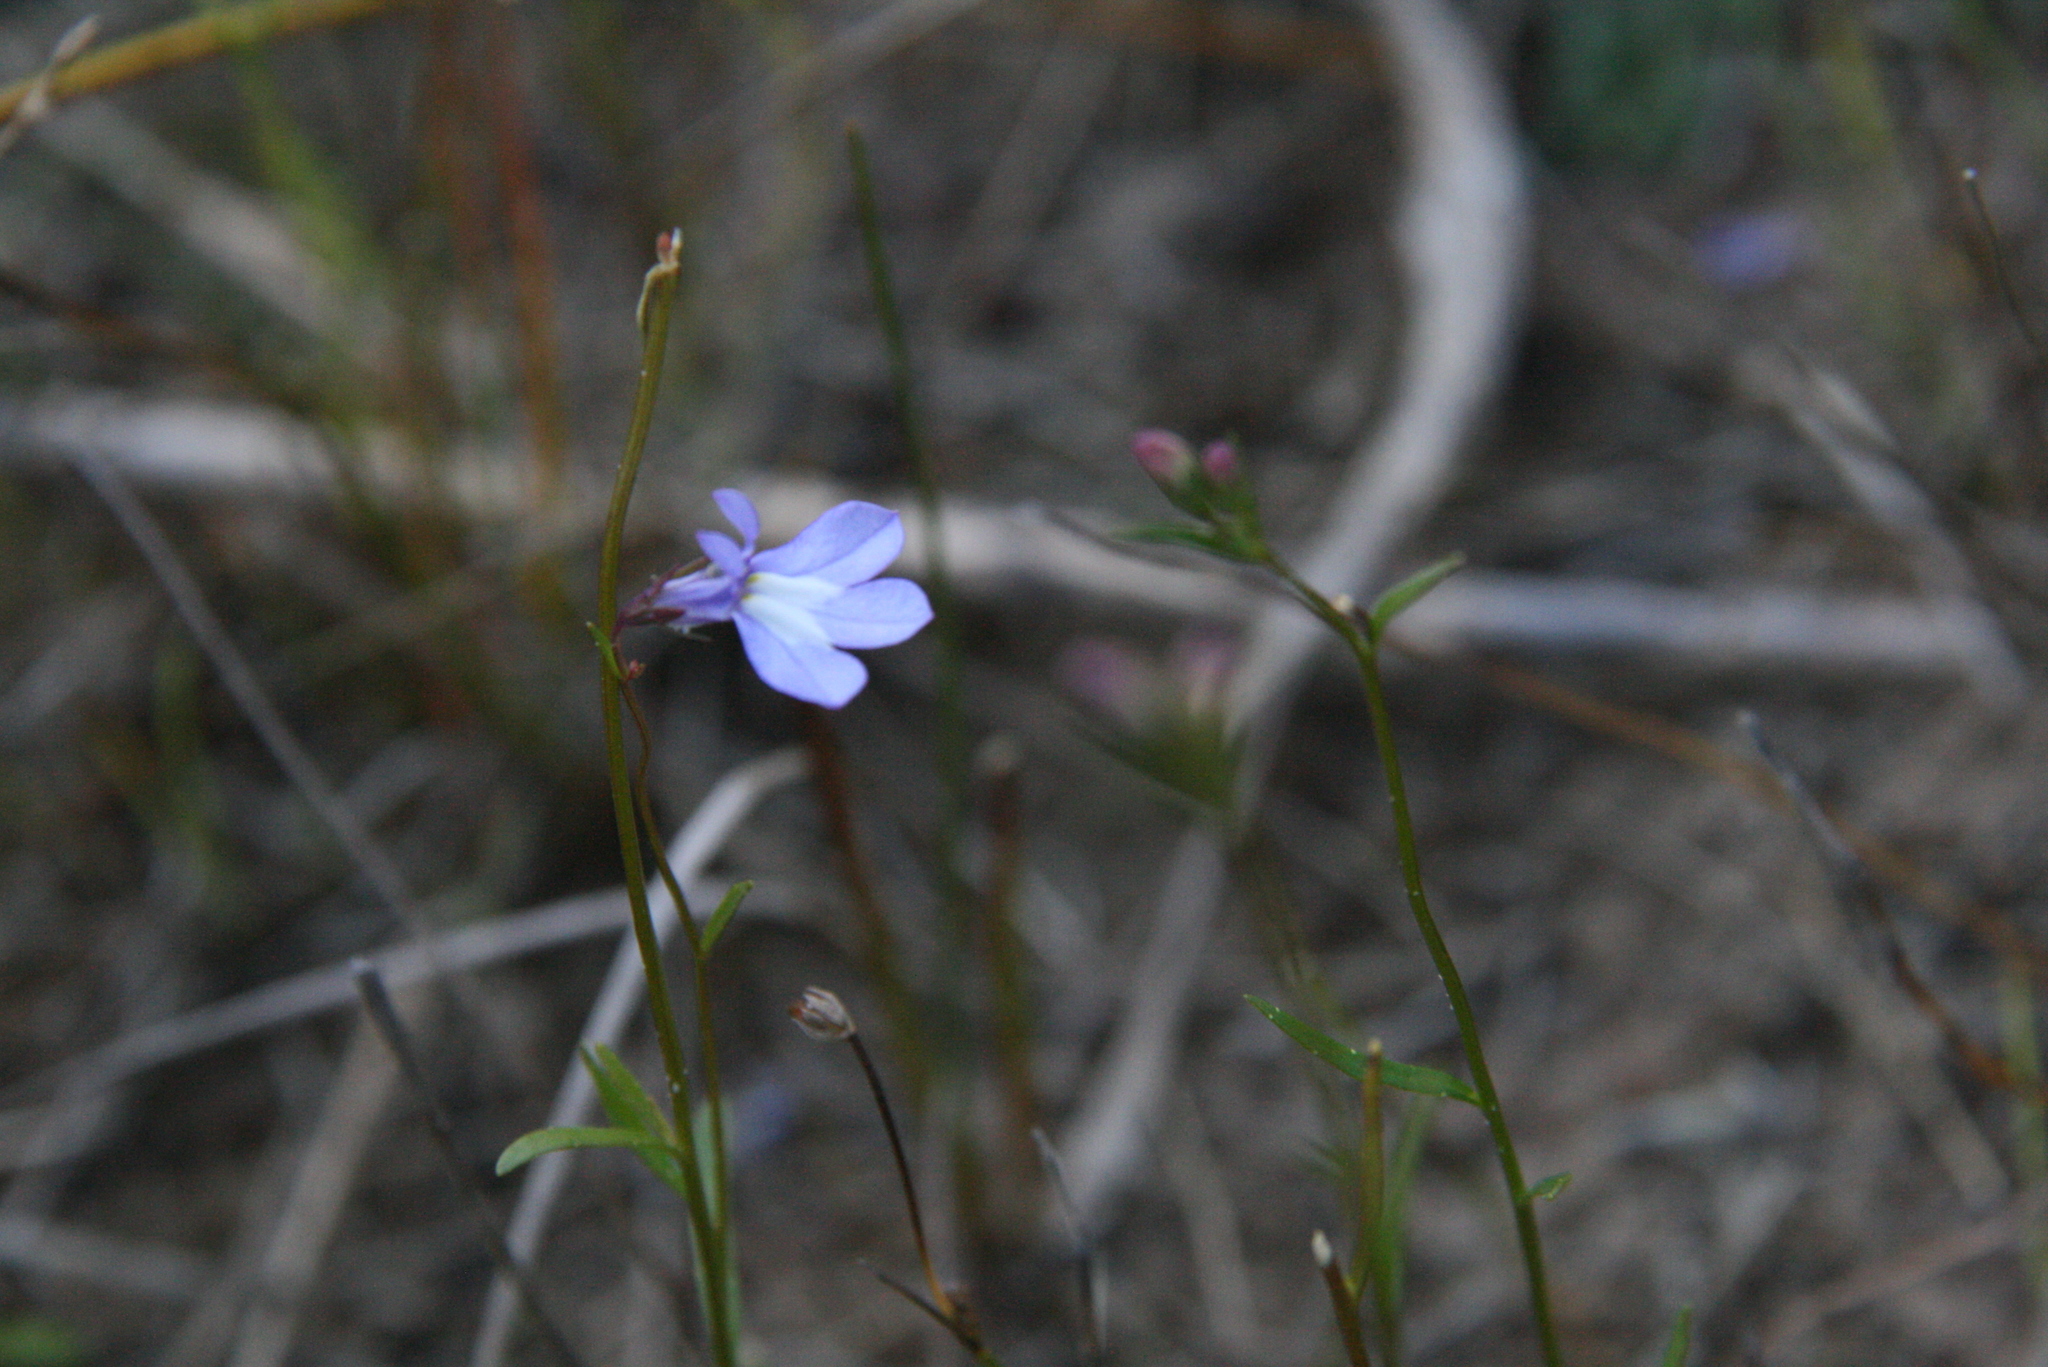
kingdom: Plantae
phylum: Tracheophyta
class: Magnoliopsida
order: Asterales
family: Campanulaceae
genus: Lobelia
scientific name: Lobelia kalmii
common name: Kalm's lobelia
